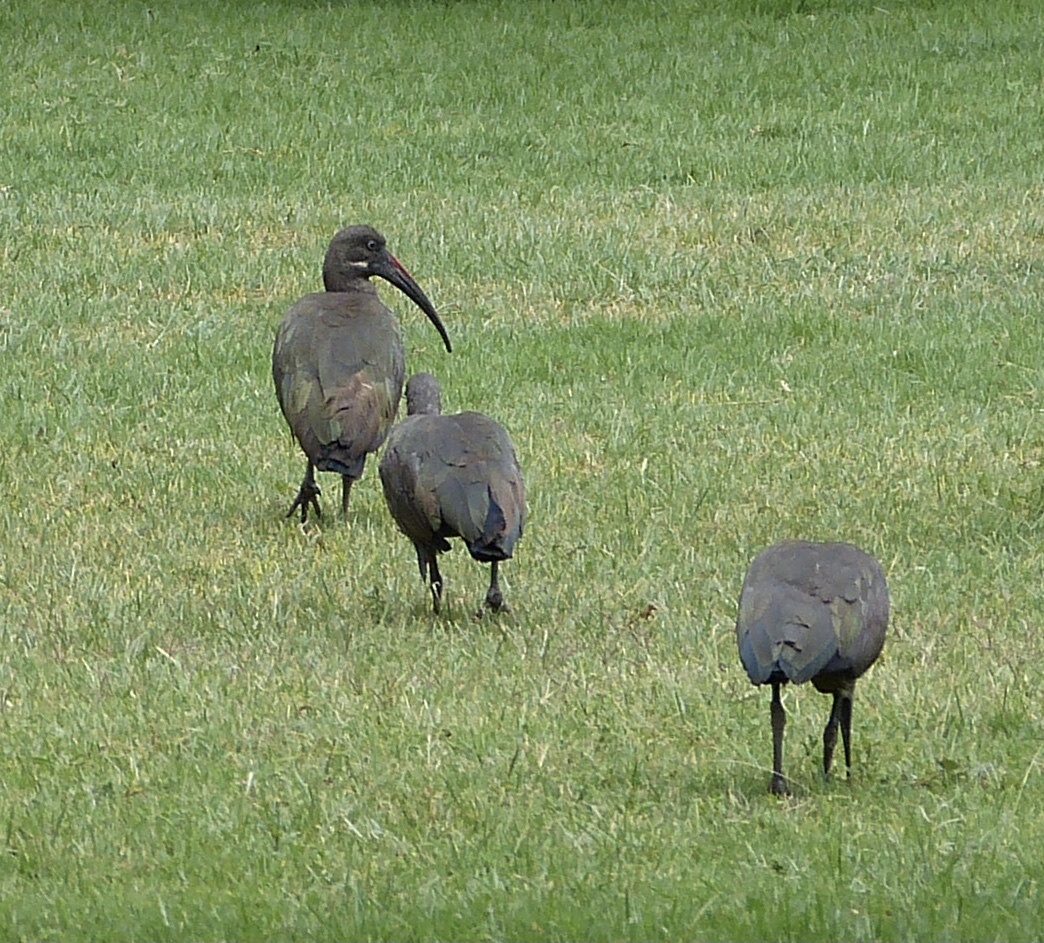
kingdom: Animalia
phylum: Chordata
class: Aves
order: Pelecaniformes
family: Threskiornithidae
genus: Bostrychia
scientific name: Bostrychia hagedash
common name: Hadada ibis
